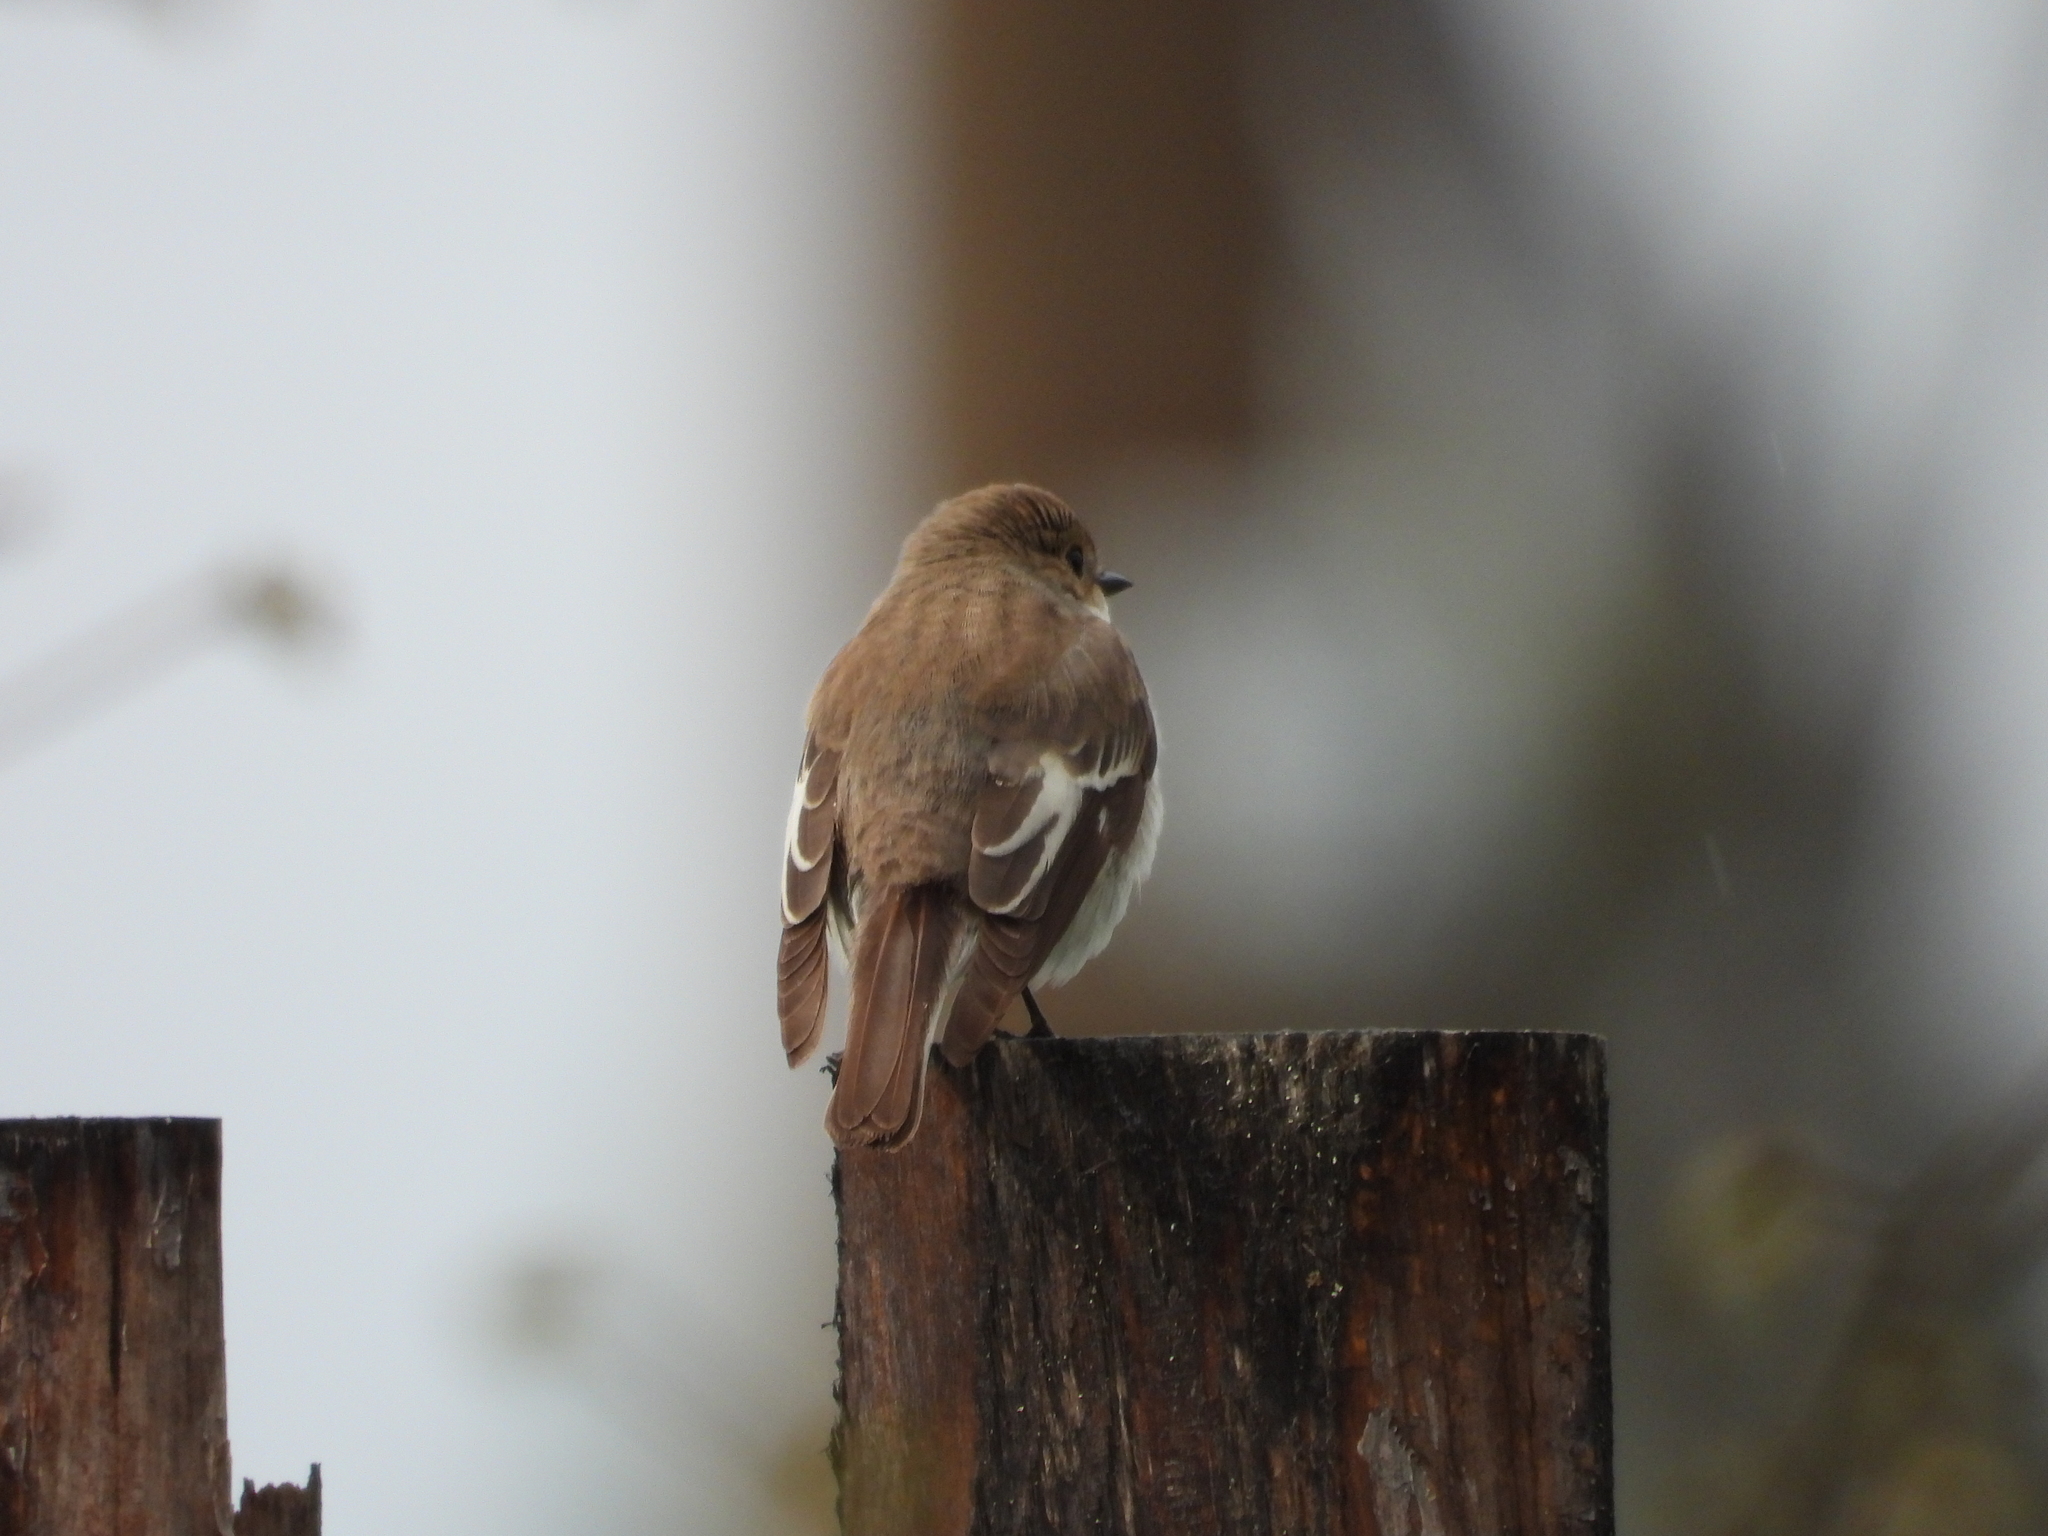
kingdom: Animalia
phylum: Chordata
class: Aves
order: Passeriformes
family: Muscicapidae
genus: Ficedula
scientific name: Ficedula hypoleuca
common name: European pied flycatcher
